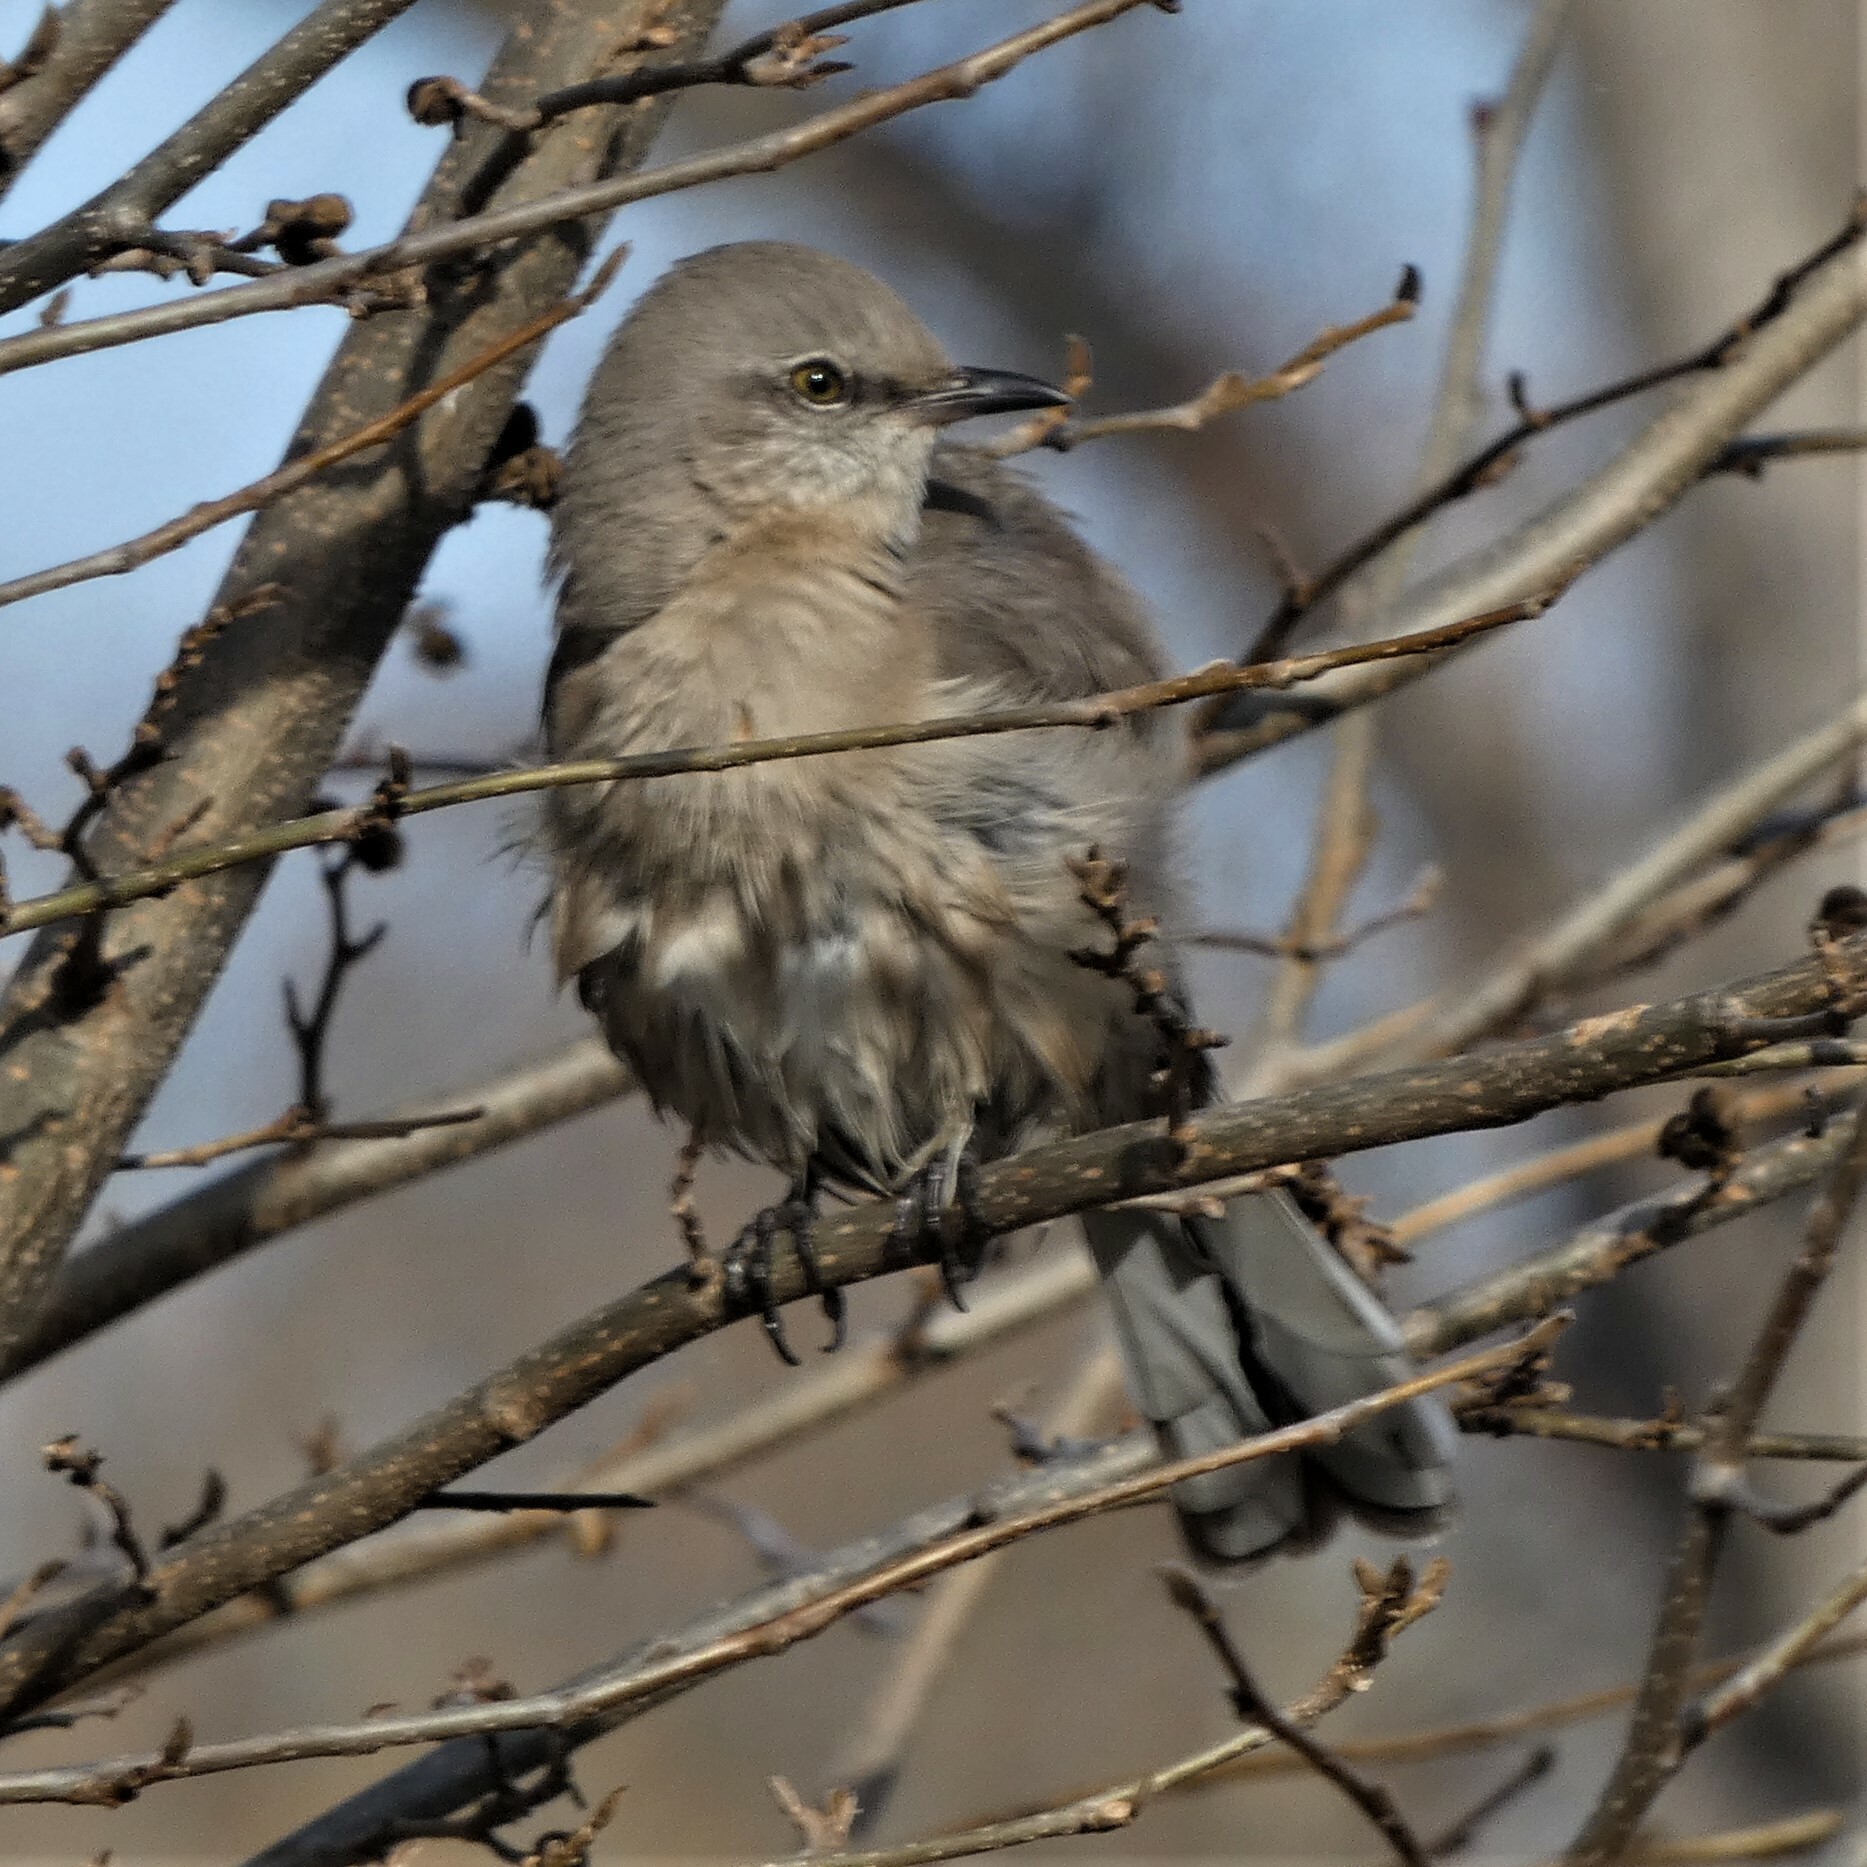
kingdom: Animalia
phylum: Chordata
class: Aves
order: Passeriformes
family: Mimidae
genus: Mimus
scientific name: Mimus polyglottos
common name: Northern mockingbird
